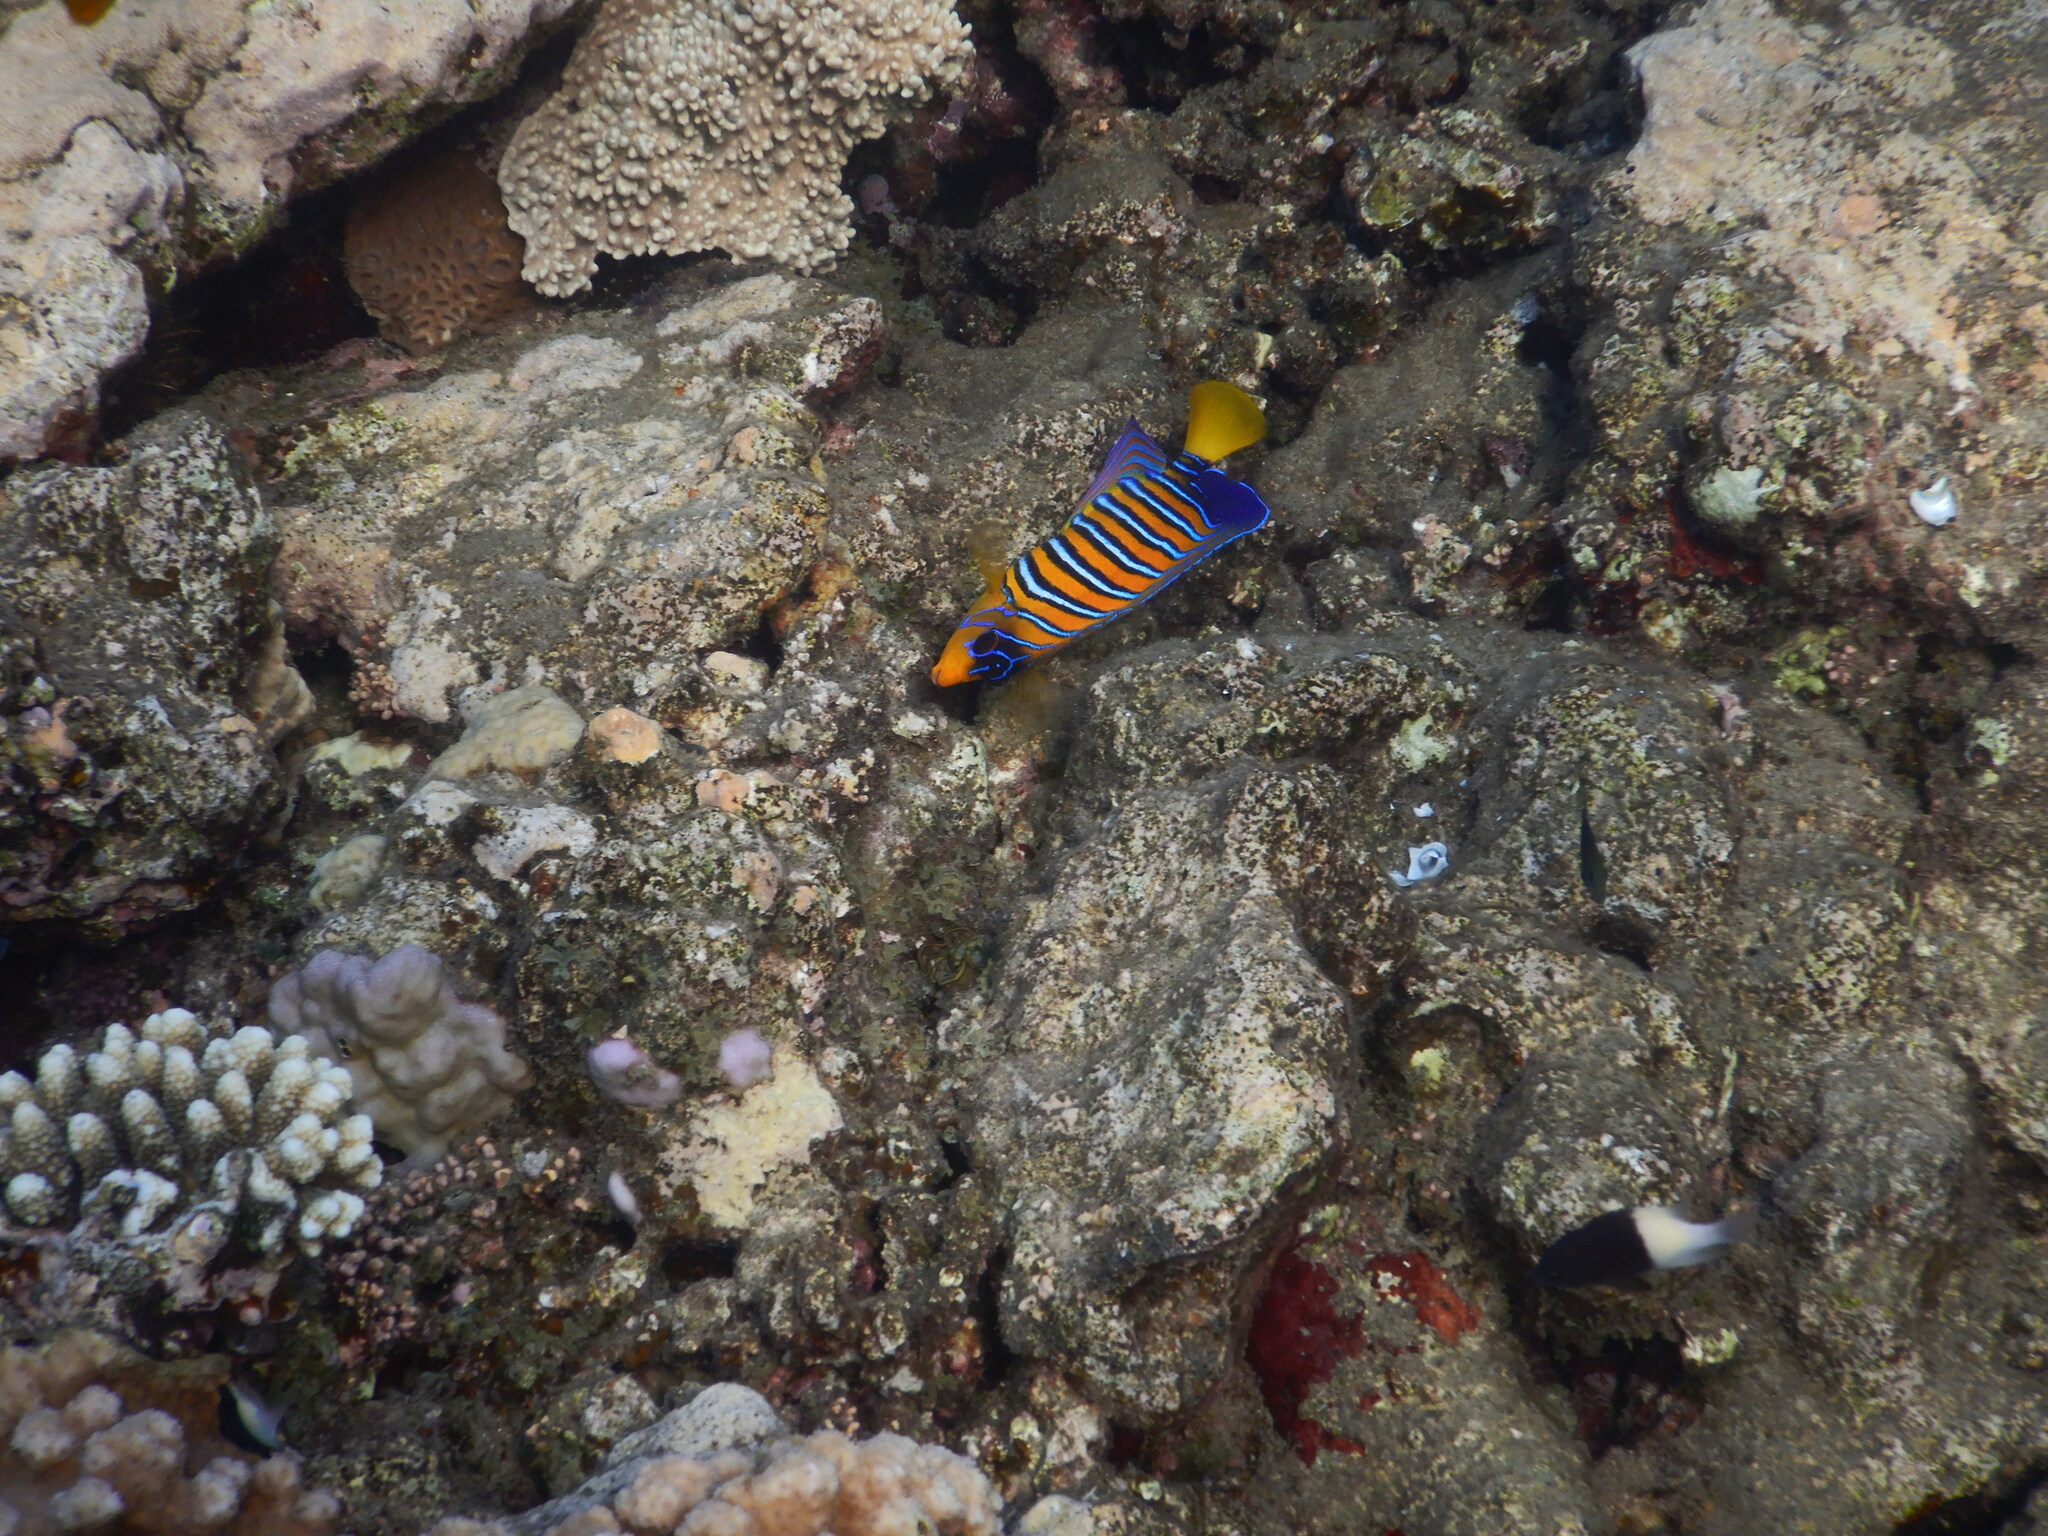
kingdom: Animalia
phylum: Chordata
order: Perciformes
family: Pomacanthidae
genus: Pygoplites
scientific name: Pygoplites diacanthus
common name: Regal angelfish
